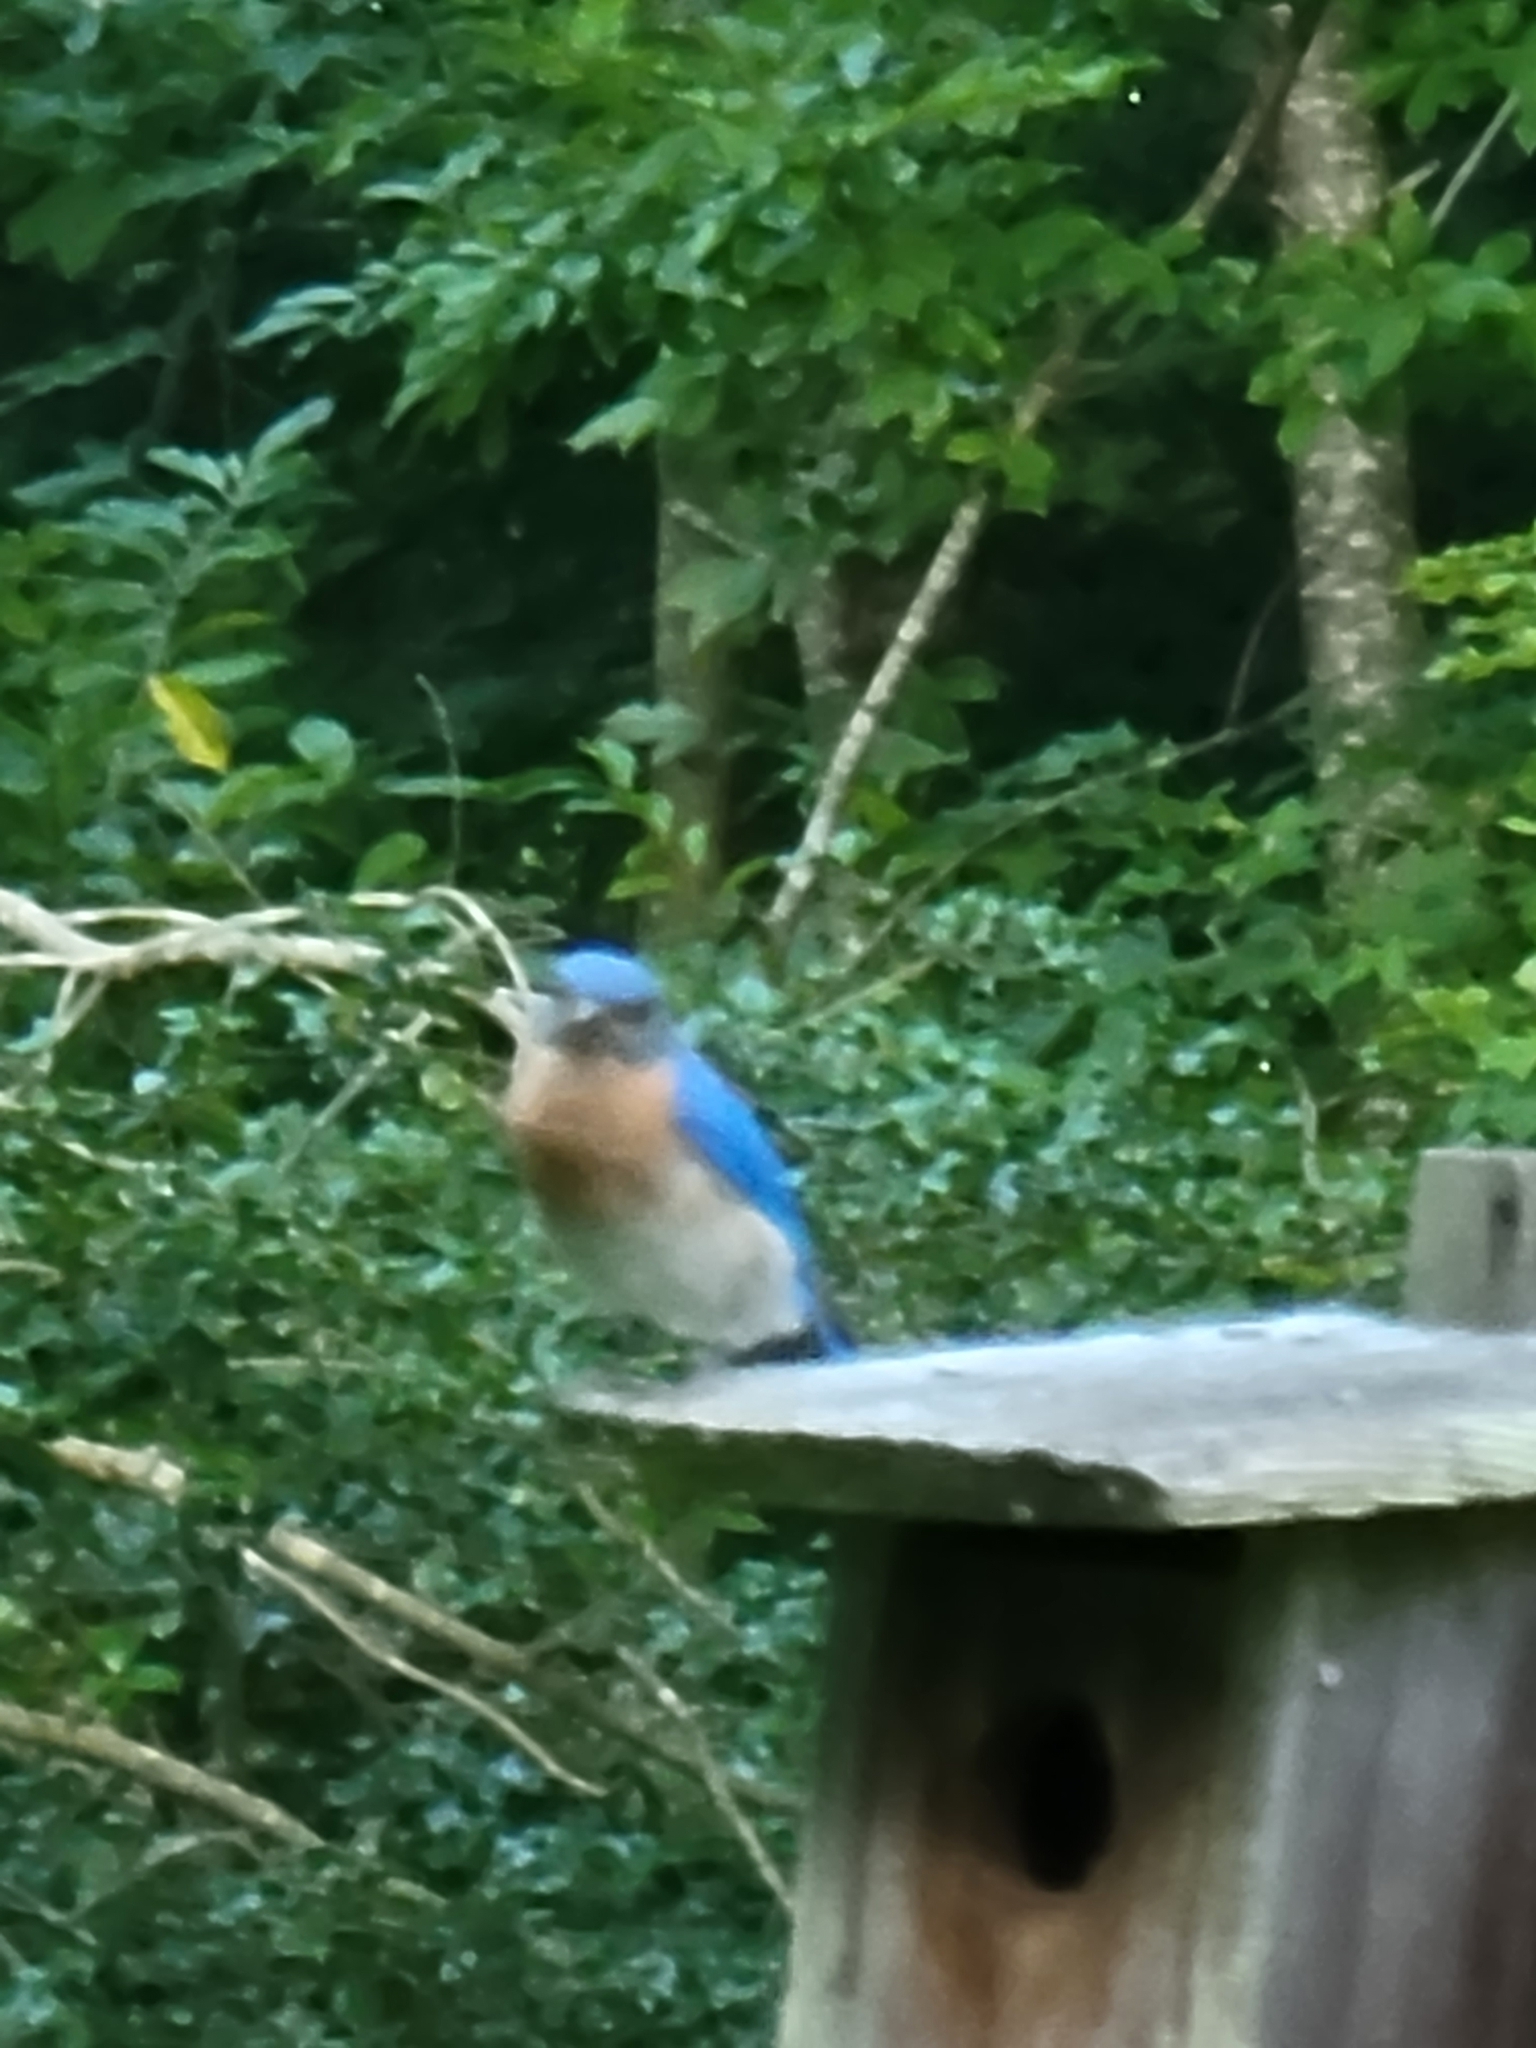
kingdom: Animalia
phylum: Chordata
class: Aves
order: Passeriformes
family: Turdidae
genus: Sialia
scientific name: Sialia sialis
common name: Eastern bluebird
